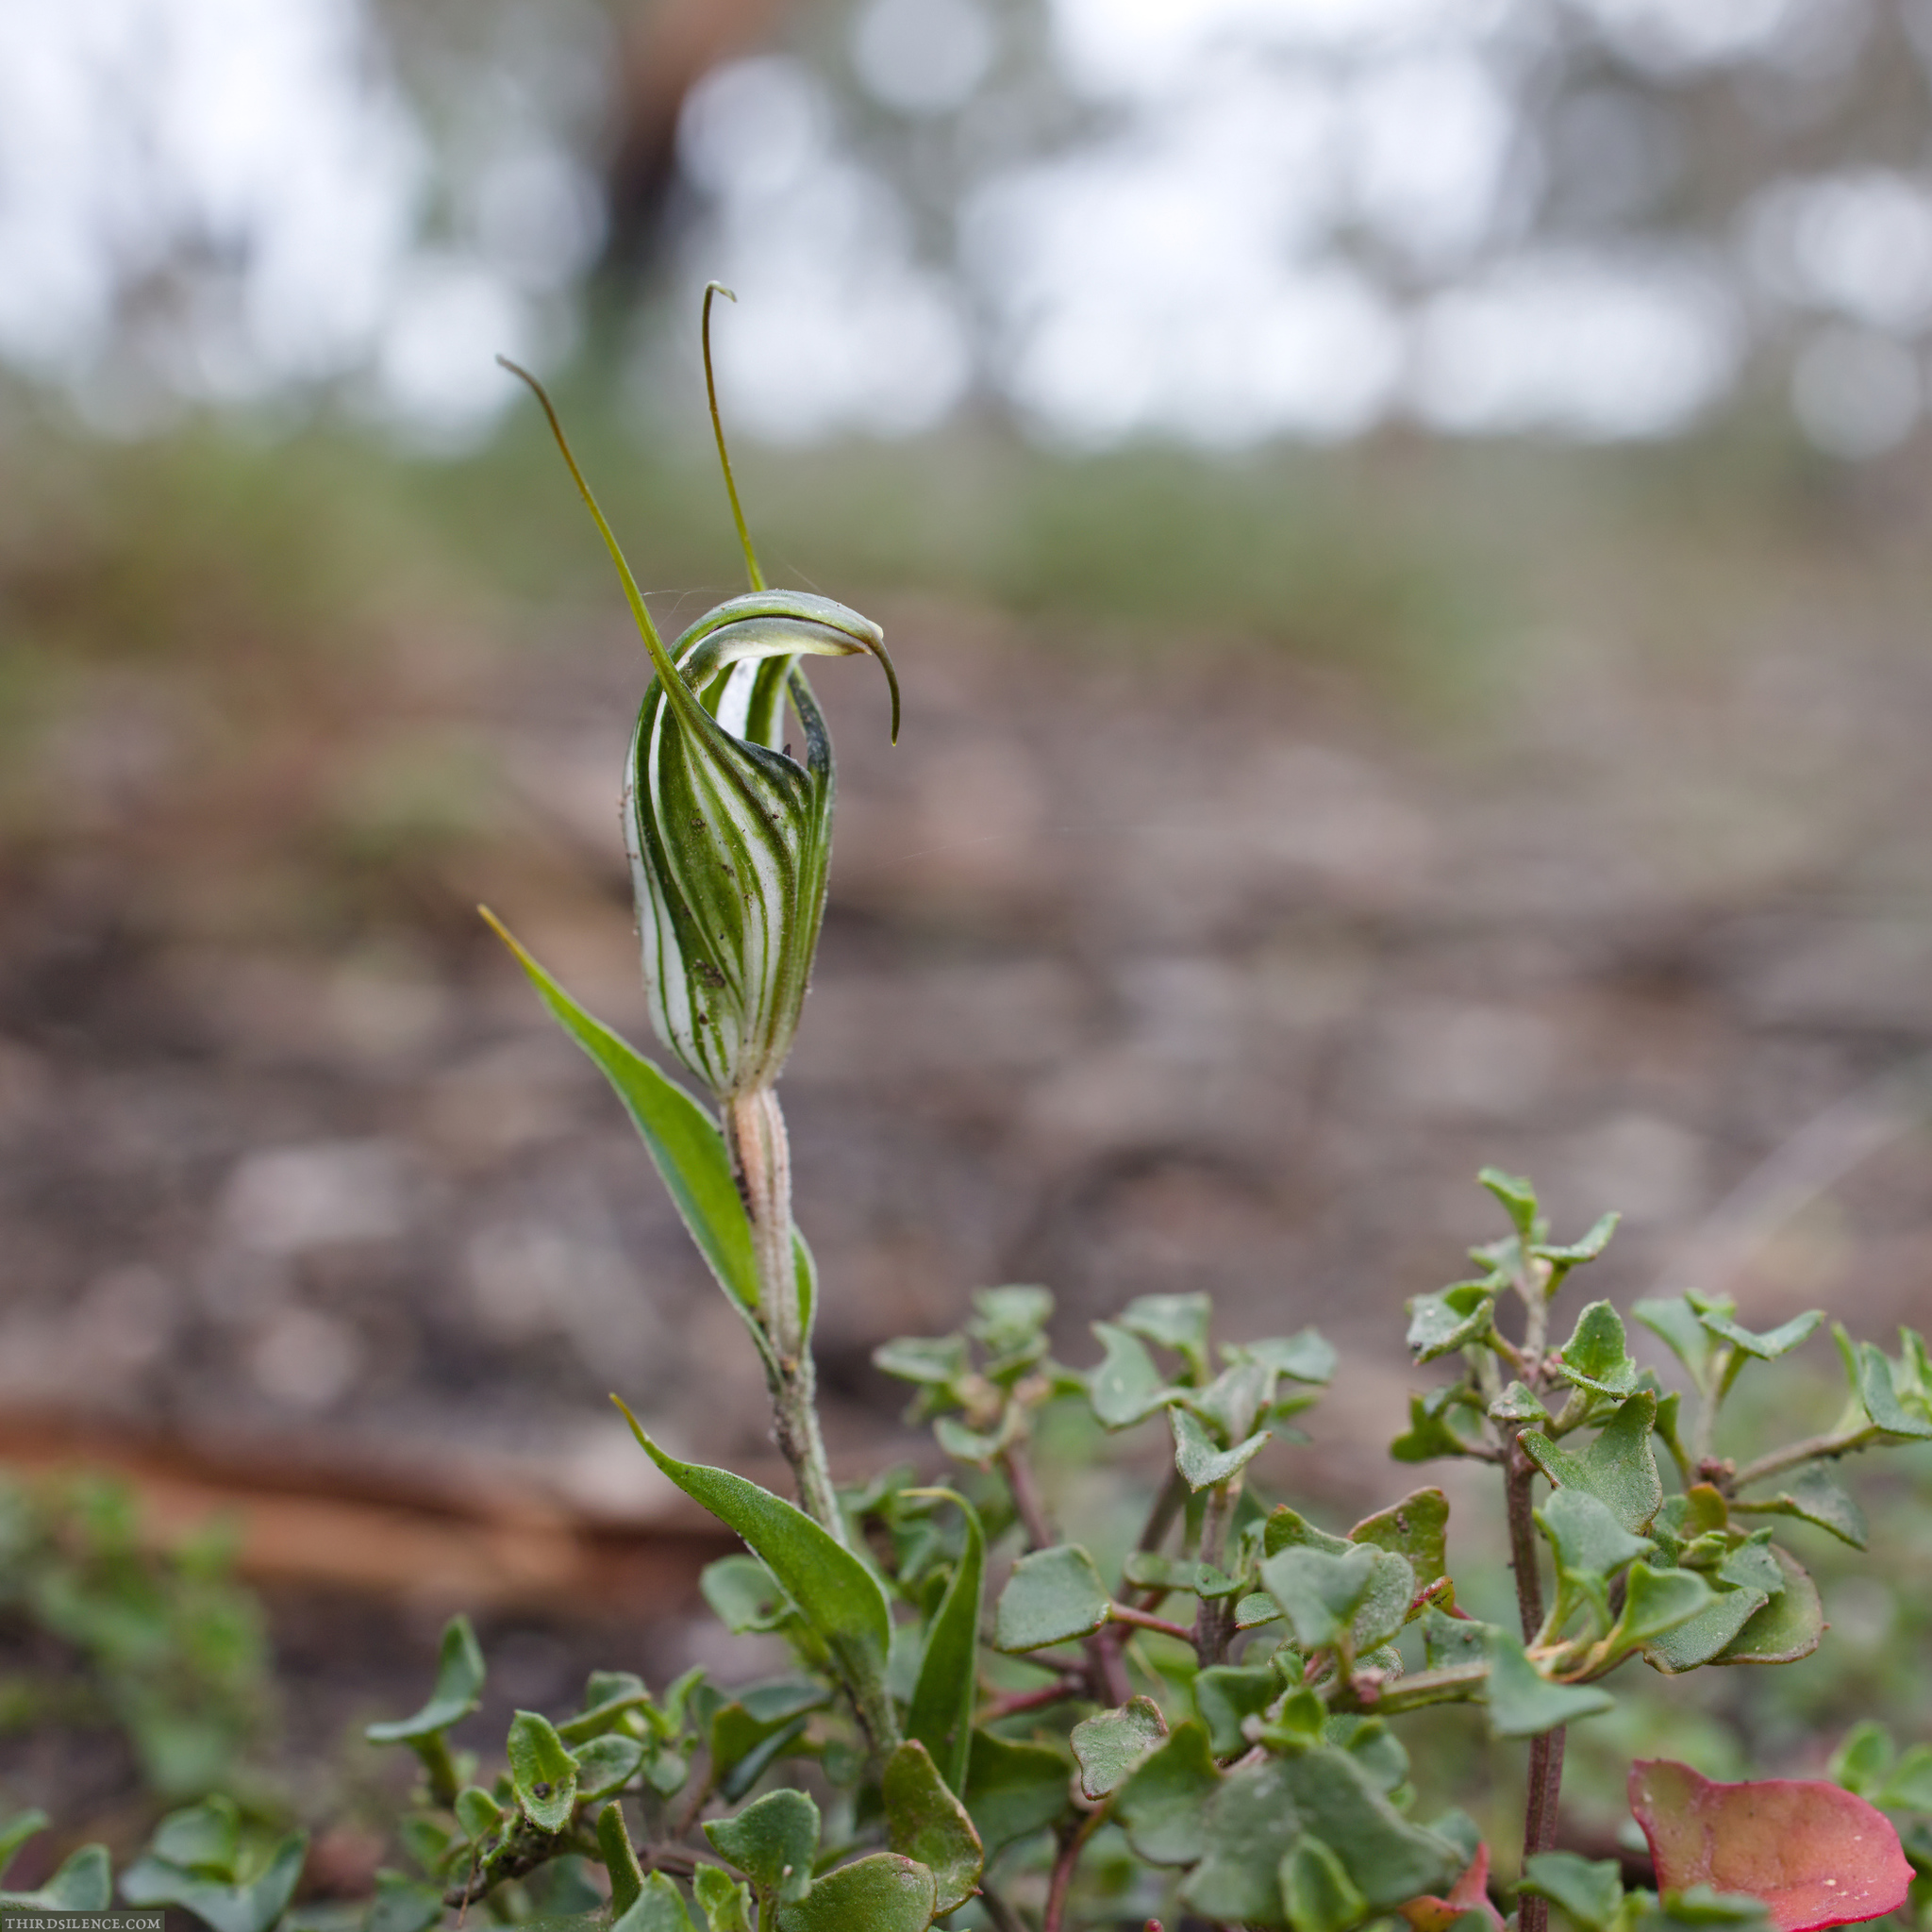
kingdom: Plantae
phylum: Tracheophyta
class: Liliopsida
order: Asparagales
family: Orchidaceae
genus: Pterostylis
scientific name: Pterostylis alata
